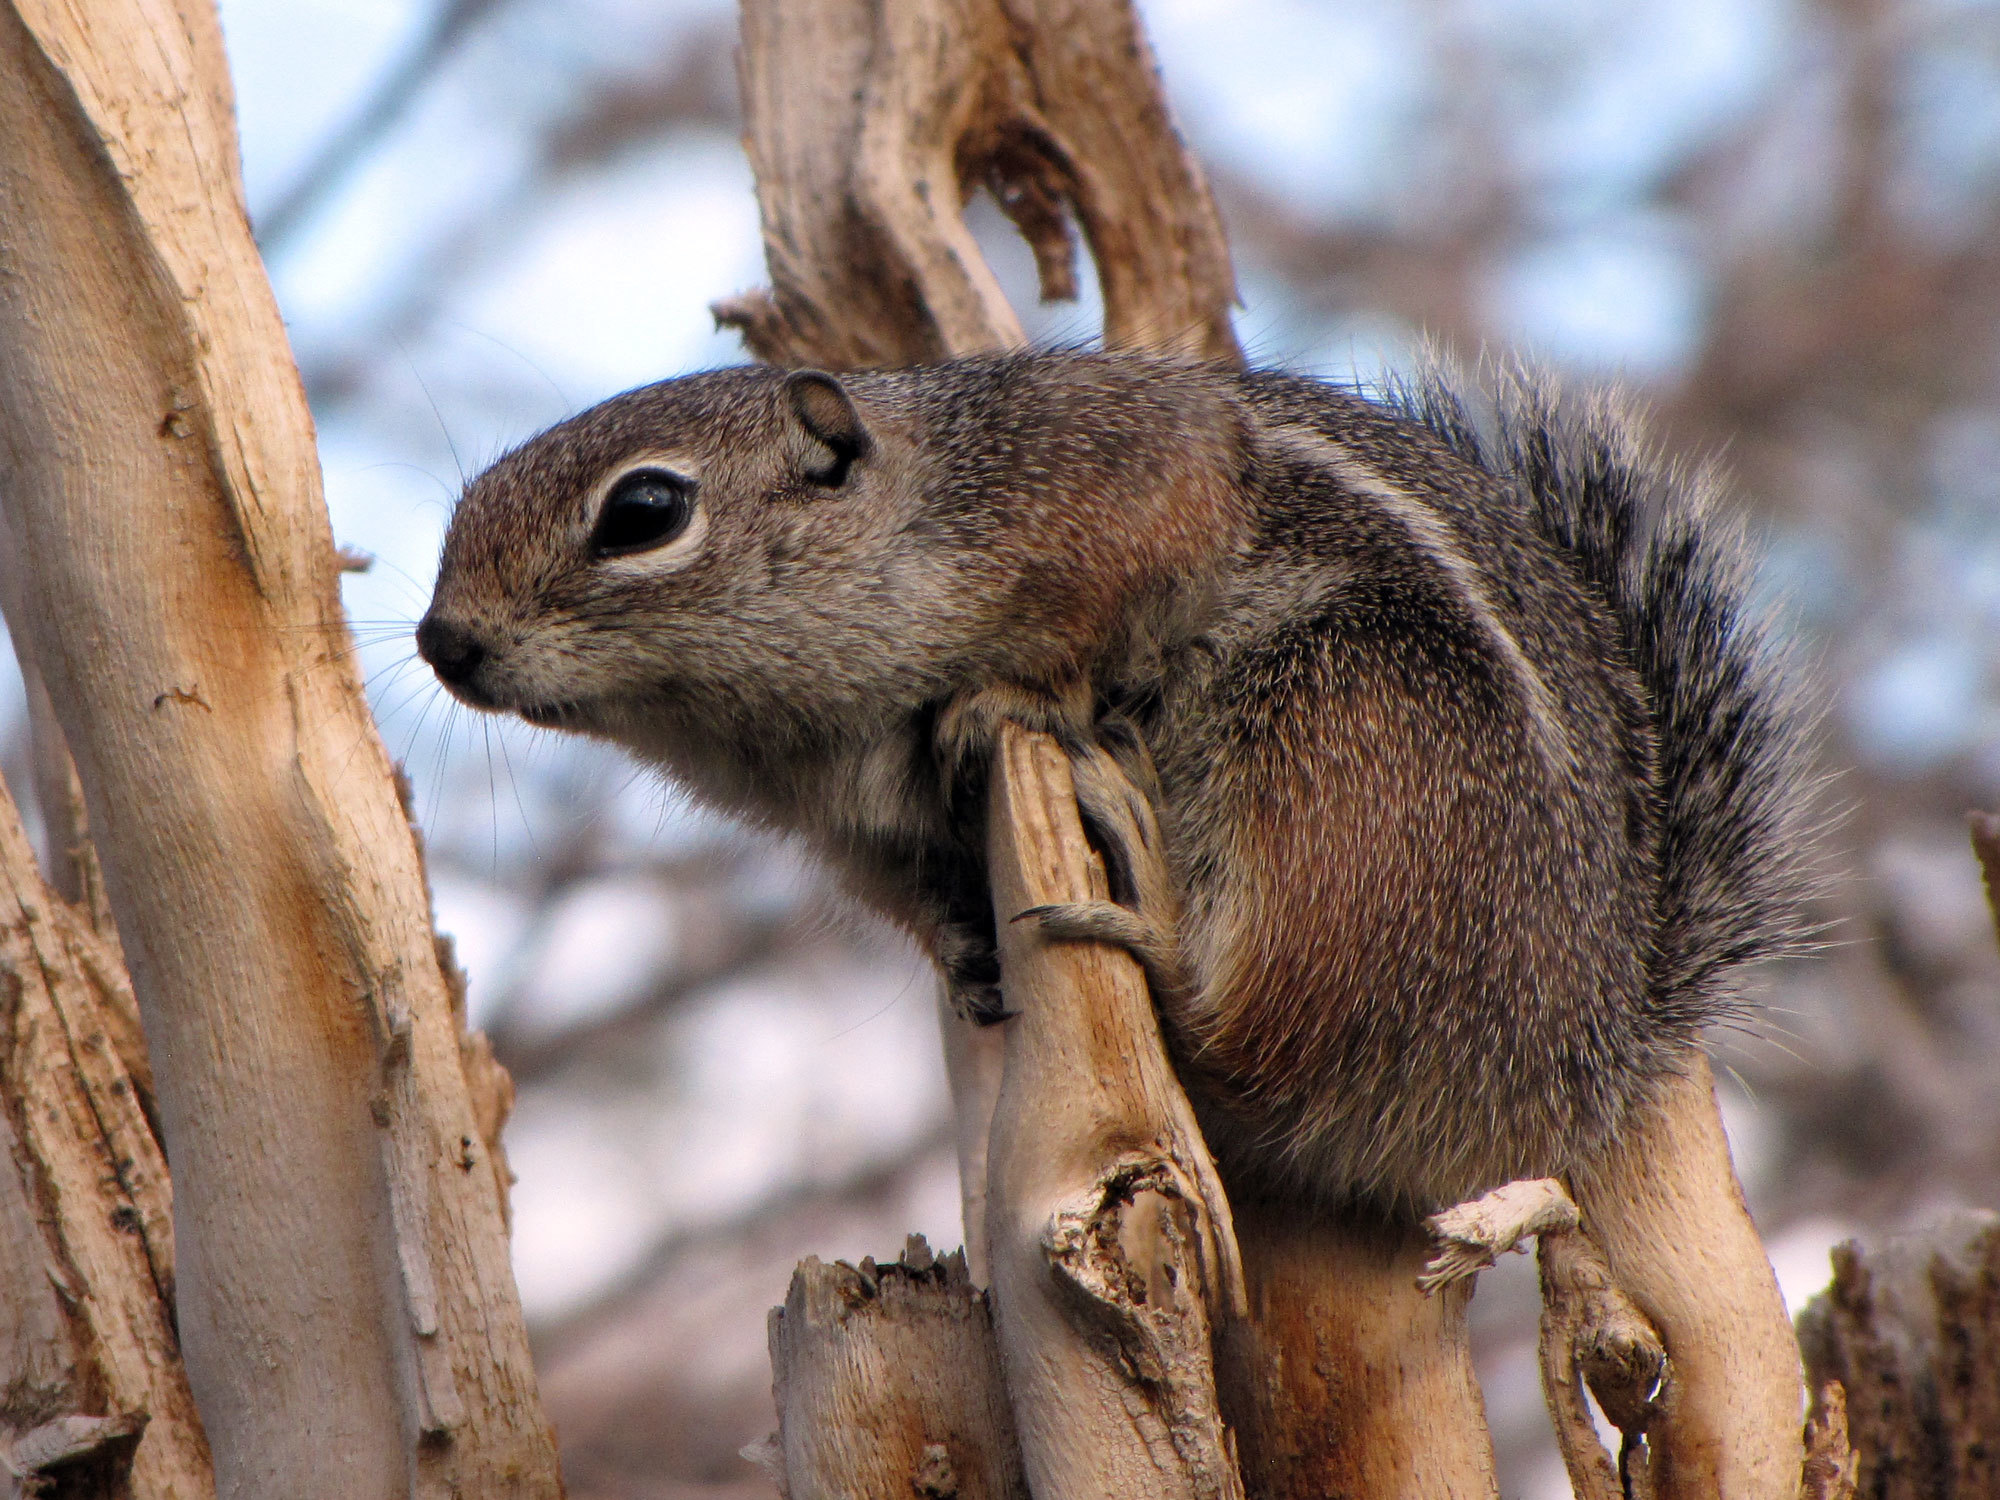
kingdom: Animalia
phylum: Chordata
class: Mammalia
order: Rodentia
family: Sciuridae
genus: Ammospermophilus
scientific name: Ammospermophilus harrisii
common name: Harris's antelope squirrel
